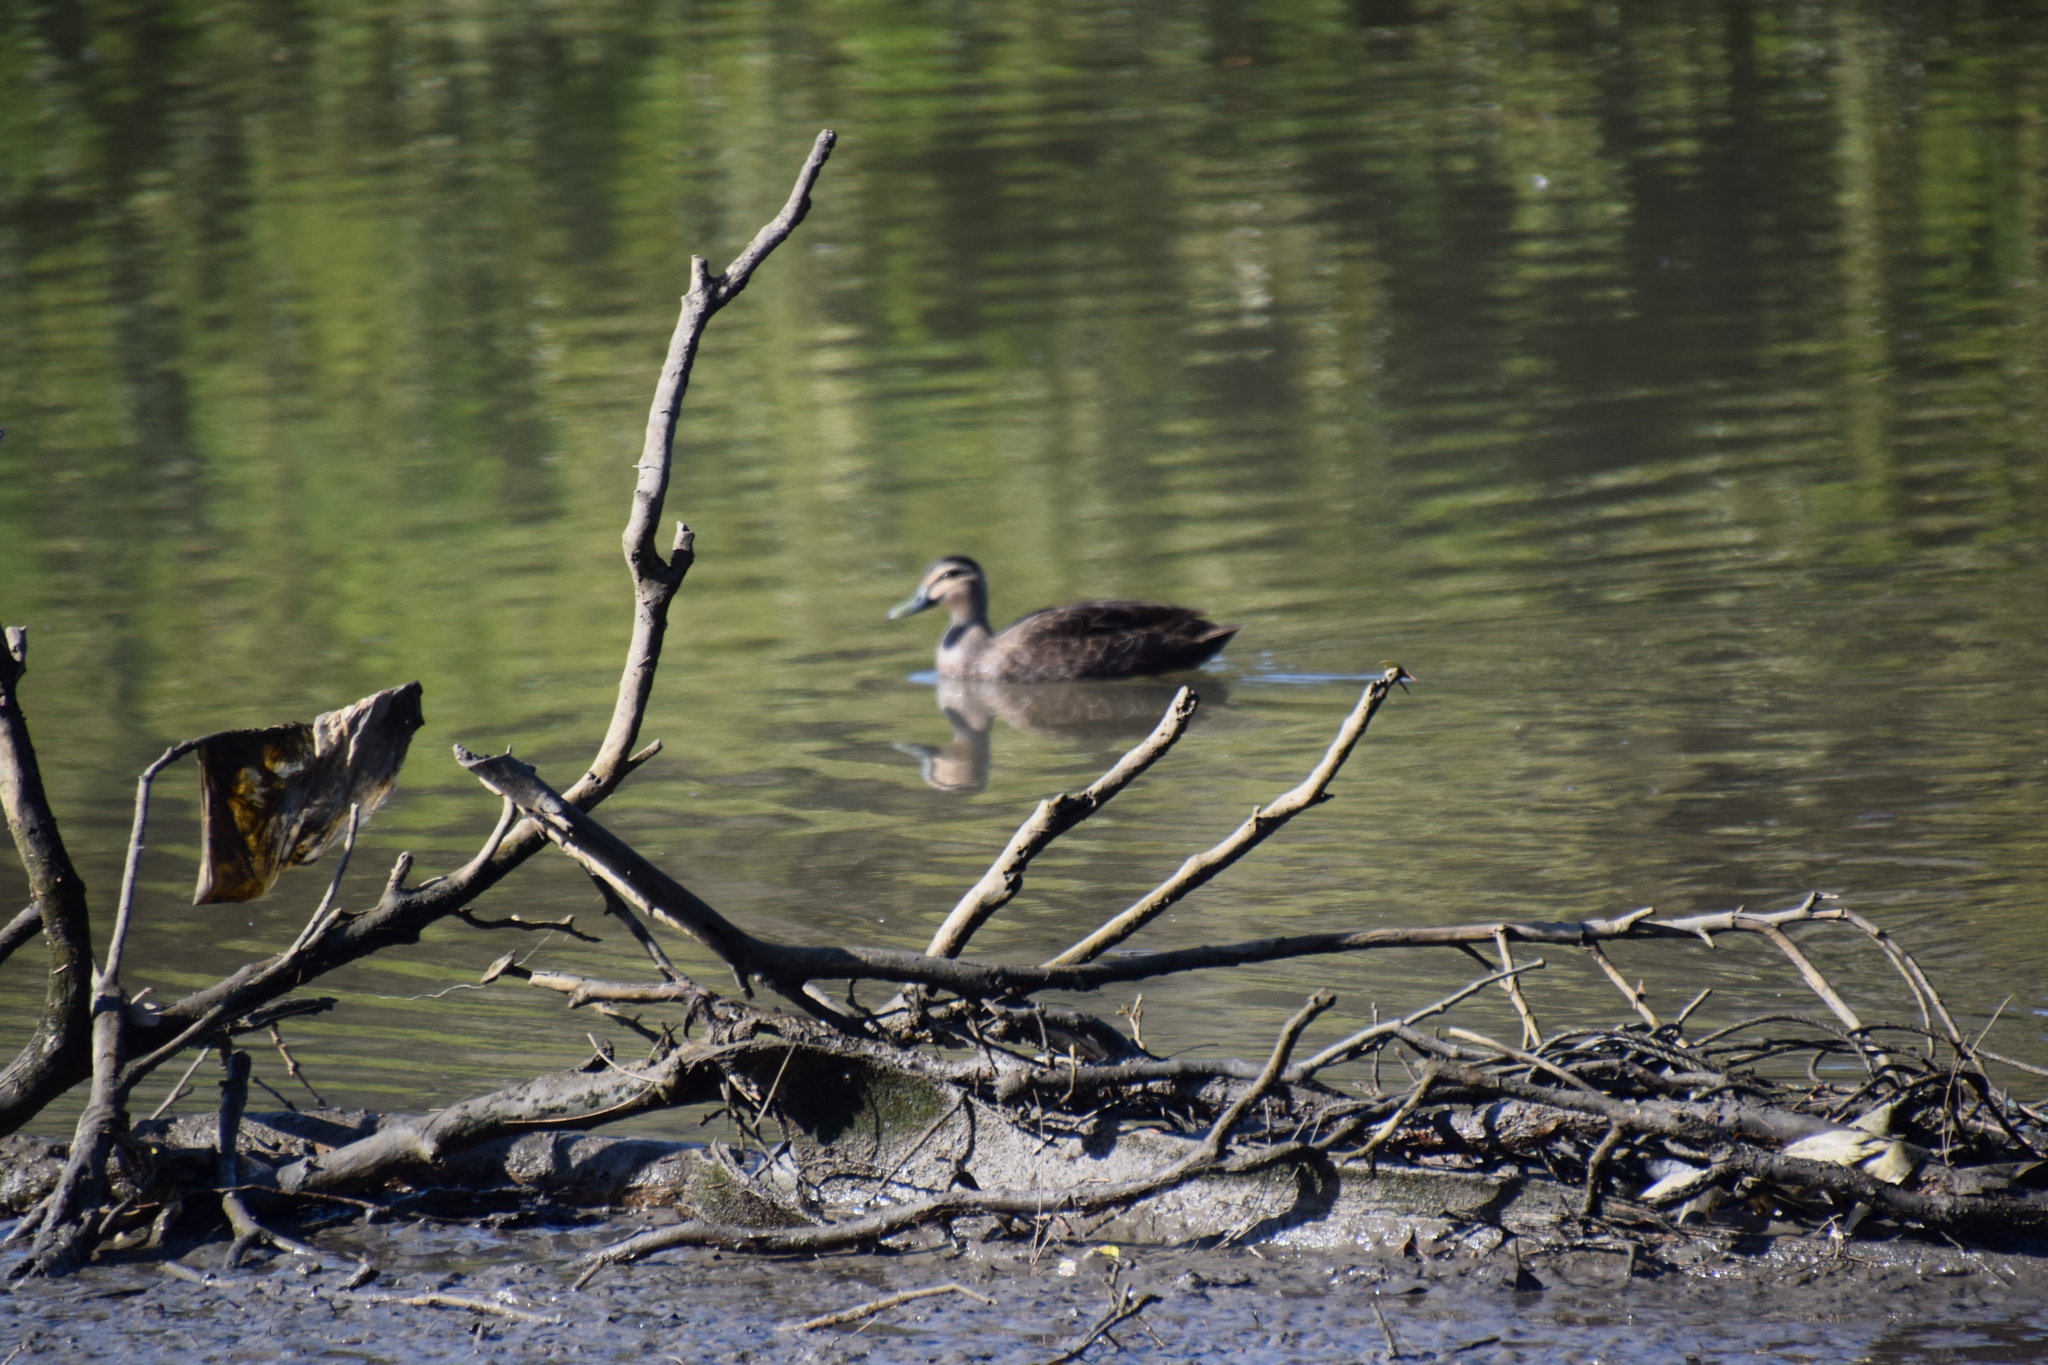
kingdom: Animalia
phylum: Chordata
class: Aves
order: Anseriformes
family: Anatidae
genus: Anas
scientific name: Anas superciliosa
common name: Pacific black duck
